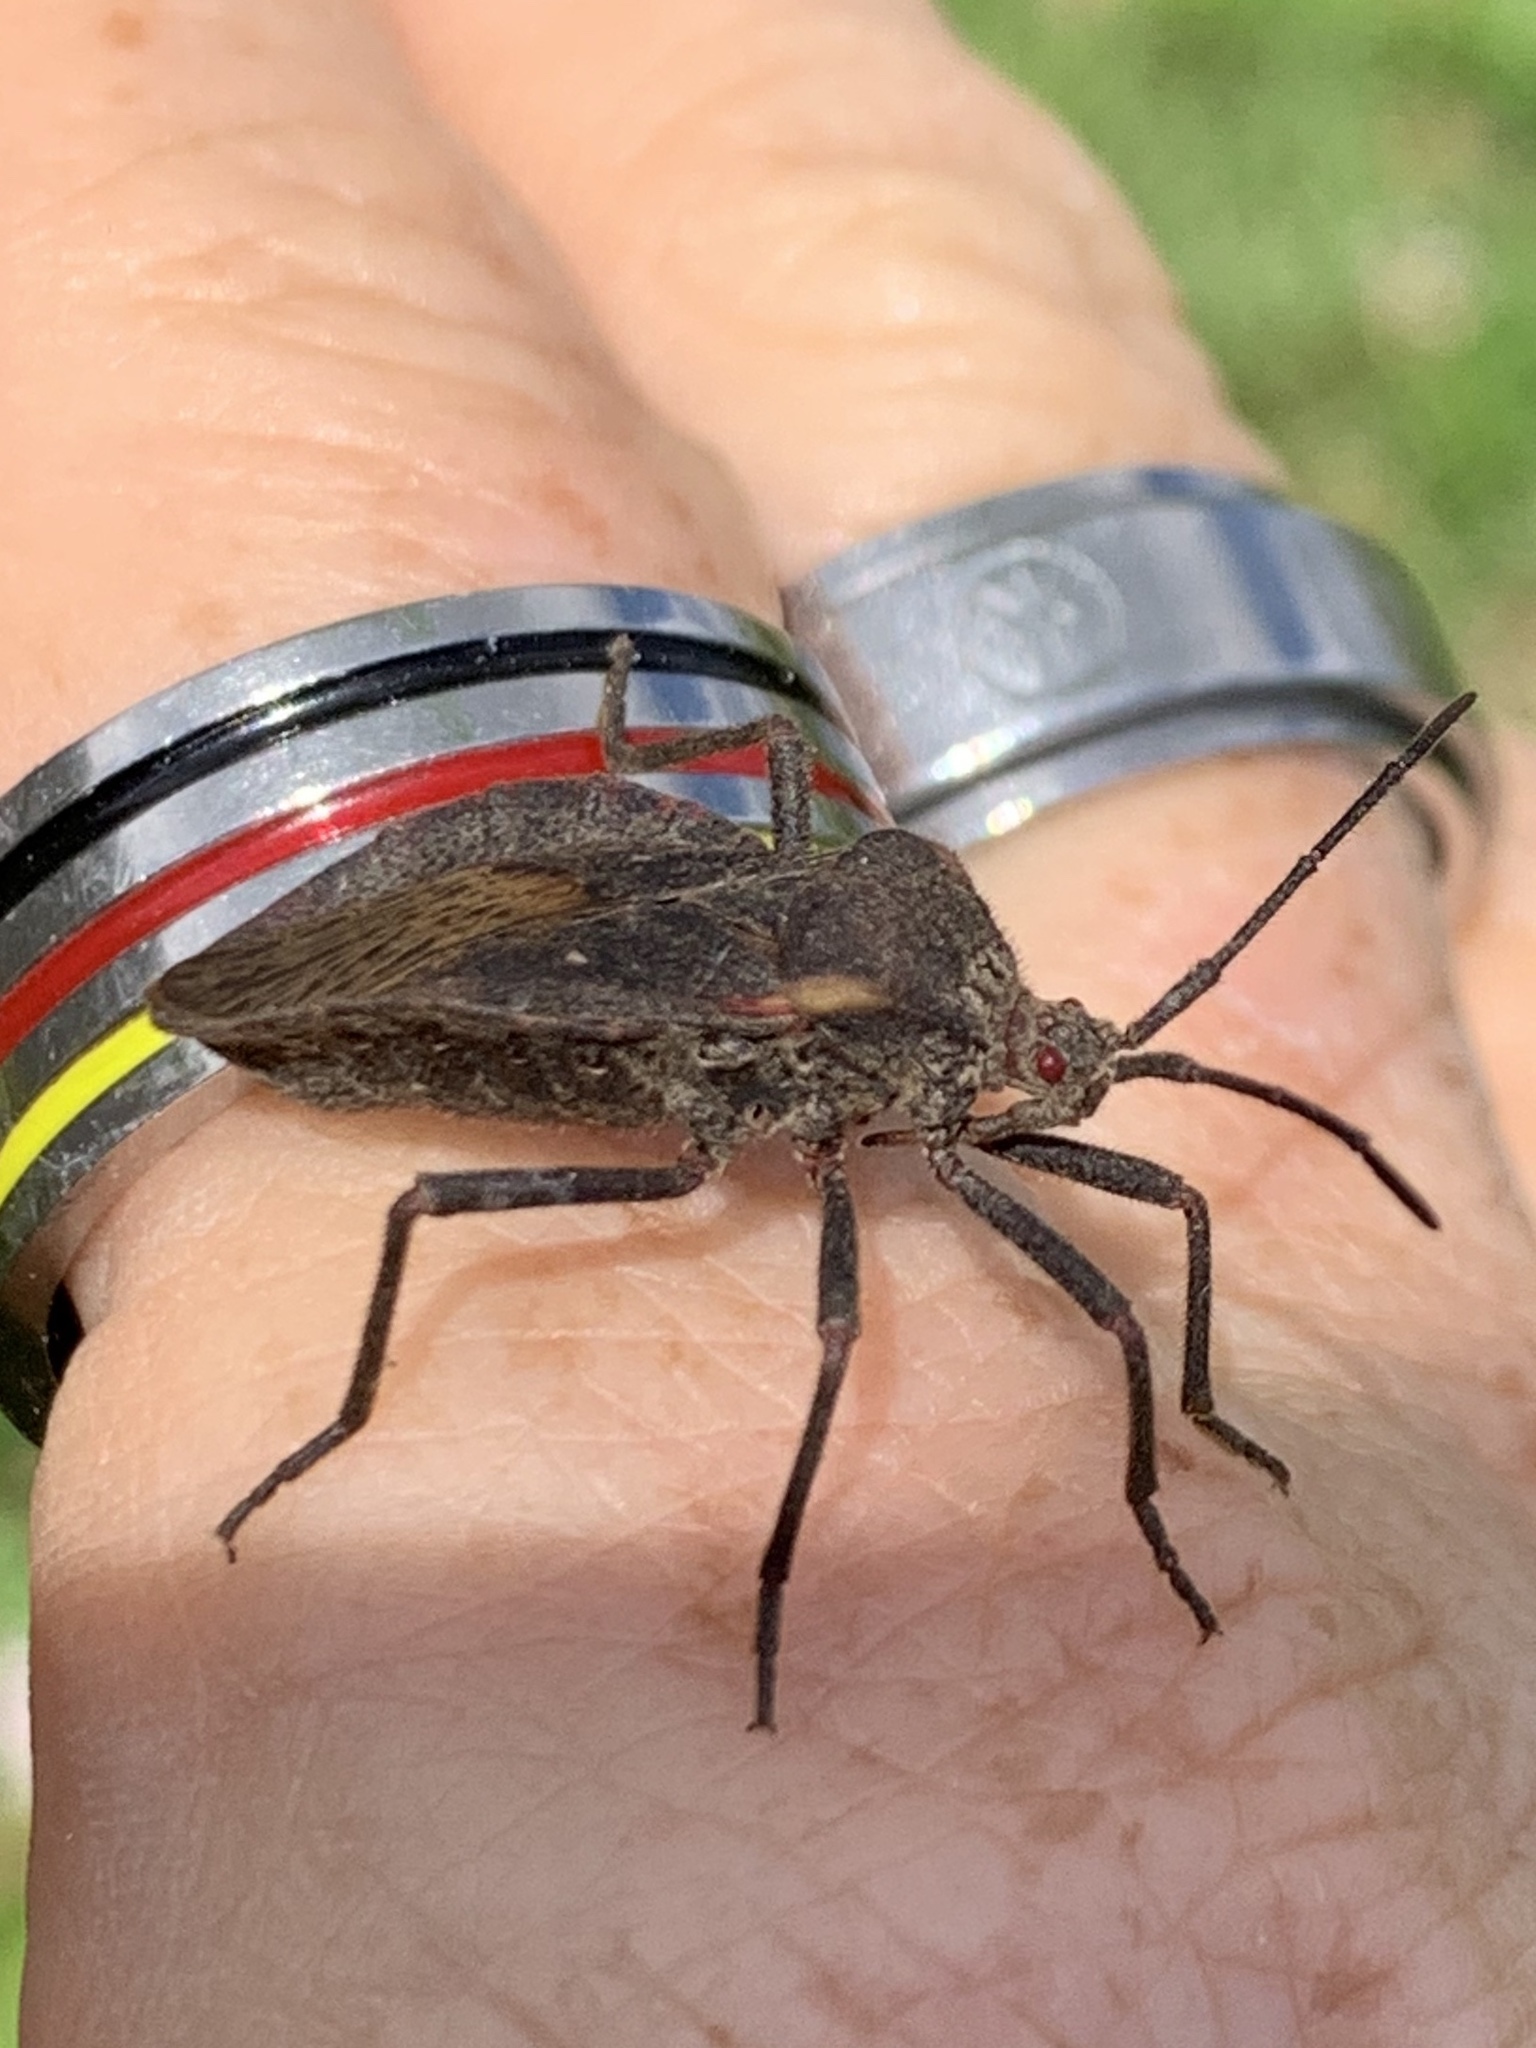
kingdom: Animalia
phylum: Arthropoda
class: Insecta
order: Hemiptera
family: Coreidae
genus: Spartocera
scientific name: Spartocera batatas
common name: Giant sweetpotato bug
